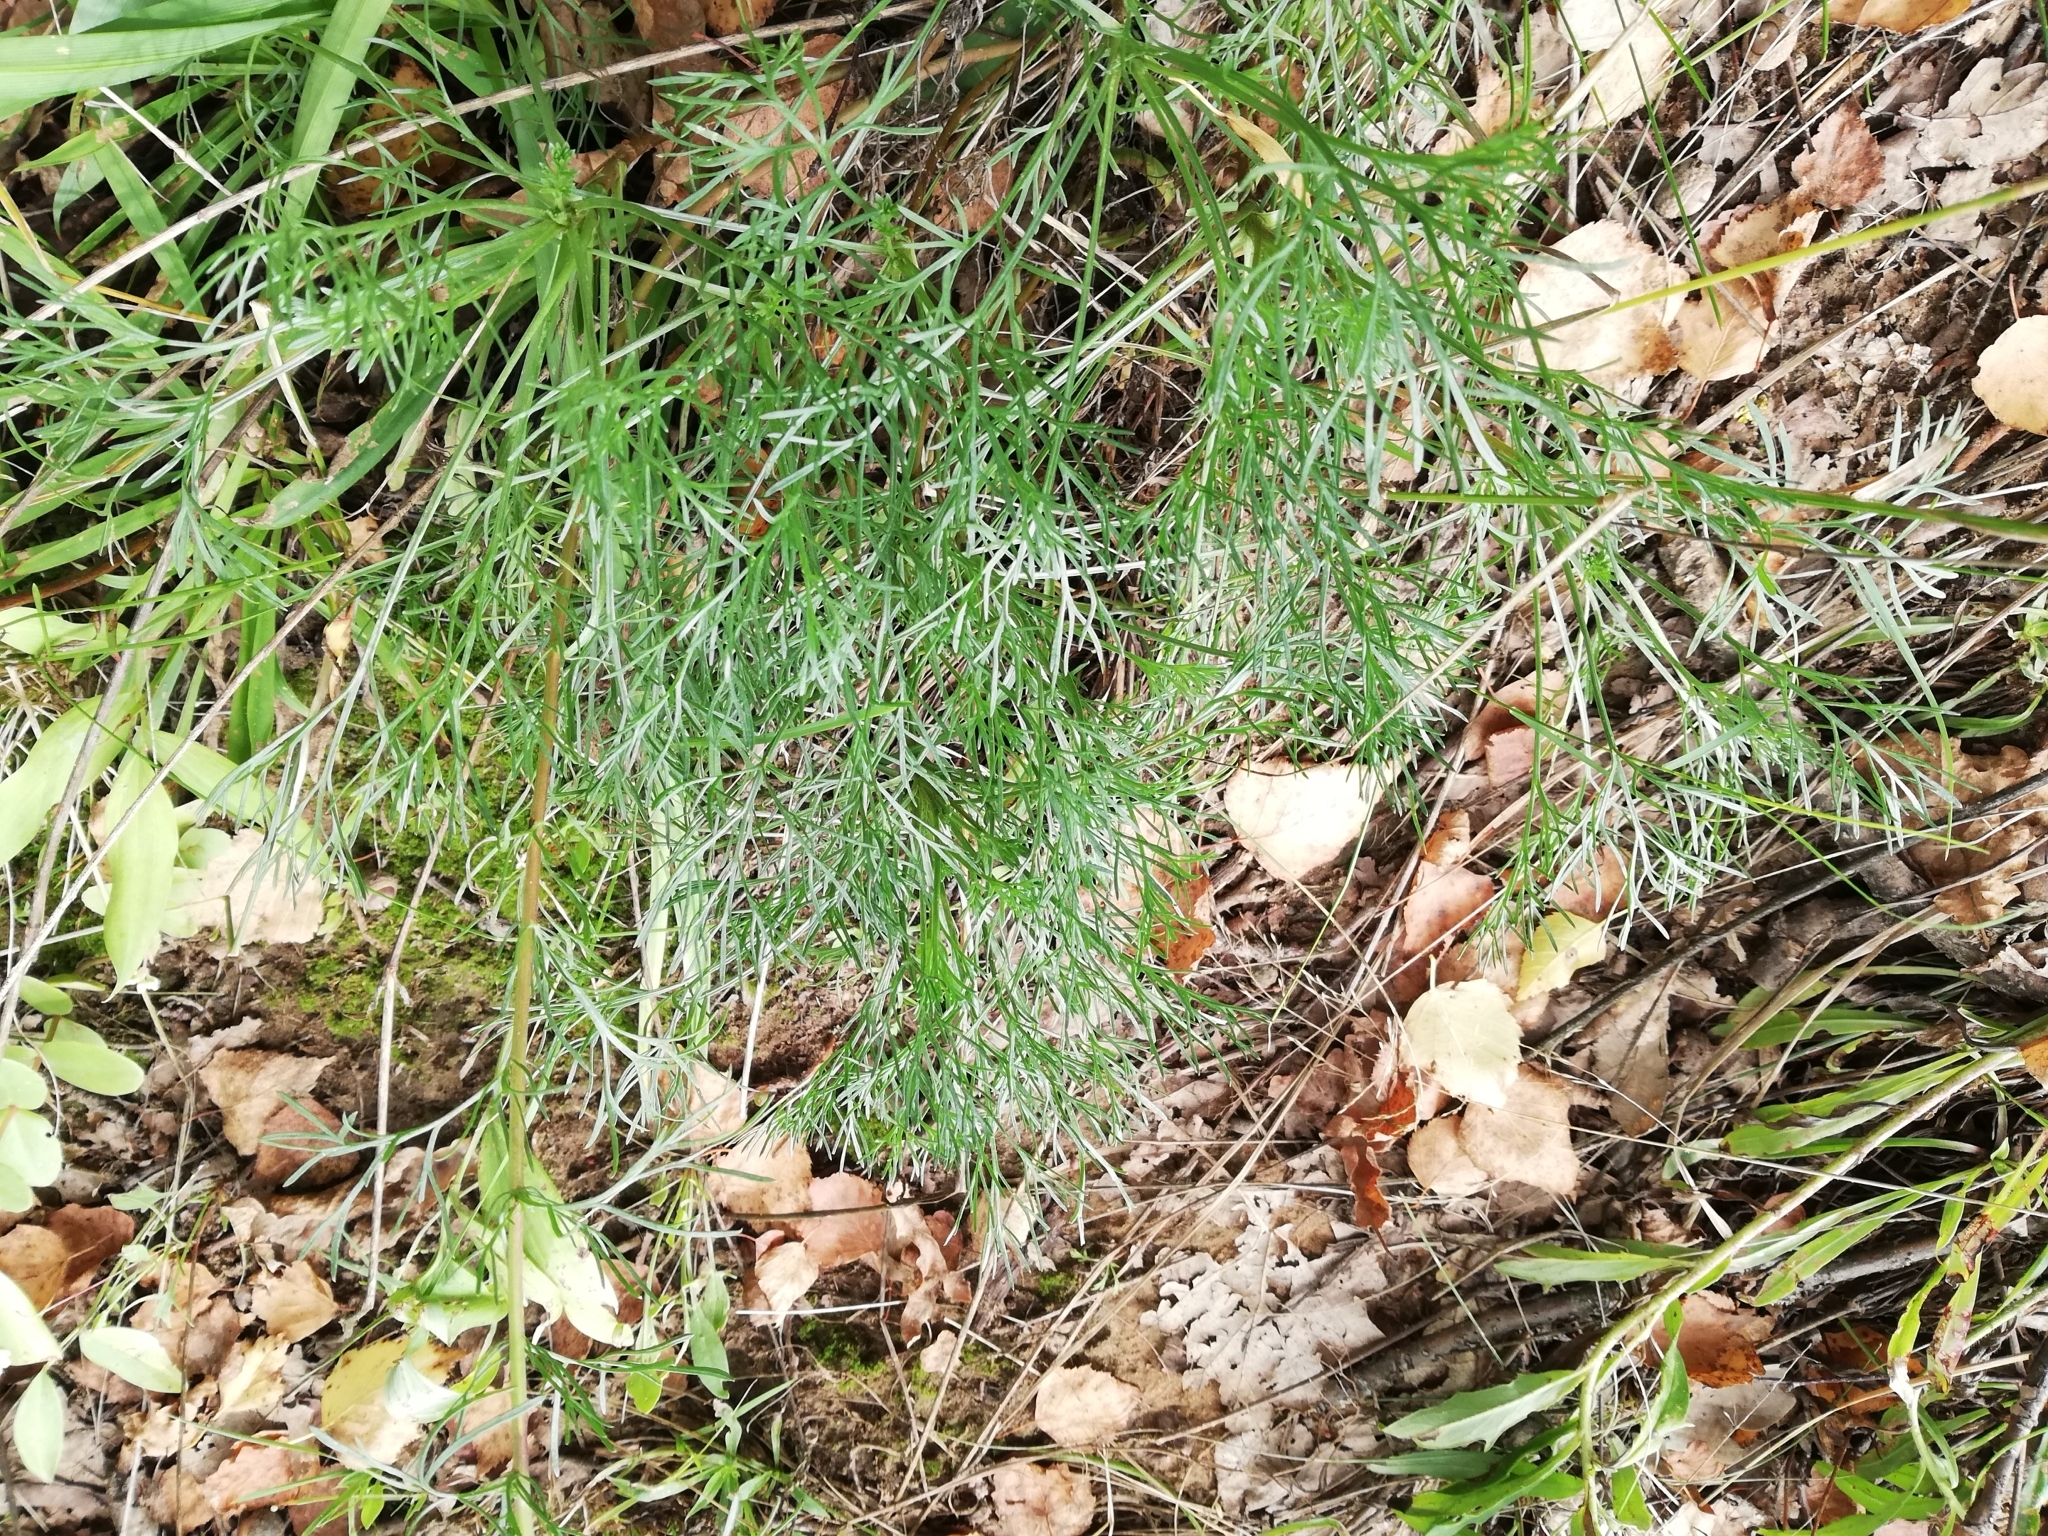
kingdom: Plantae
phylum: Tracheophyta
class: Magnoliopsida
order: Asterales
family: Asteraceae
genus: Artemisia
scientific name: Artemisia campestris
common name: Field wormwood
